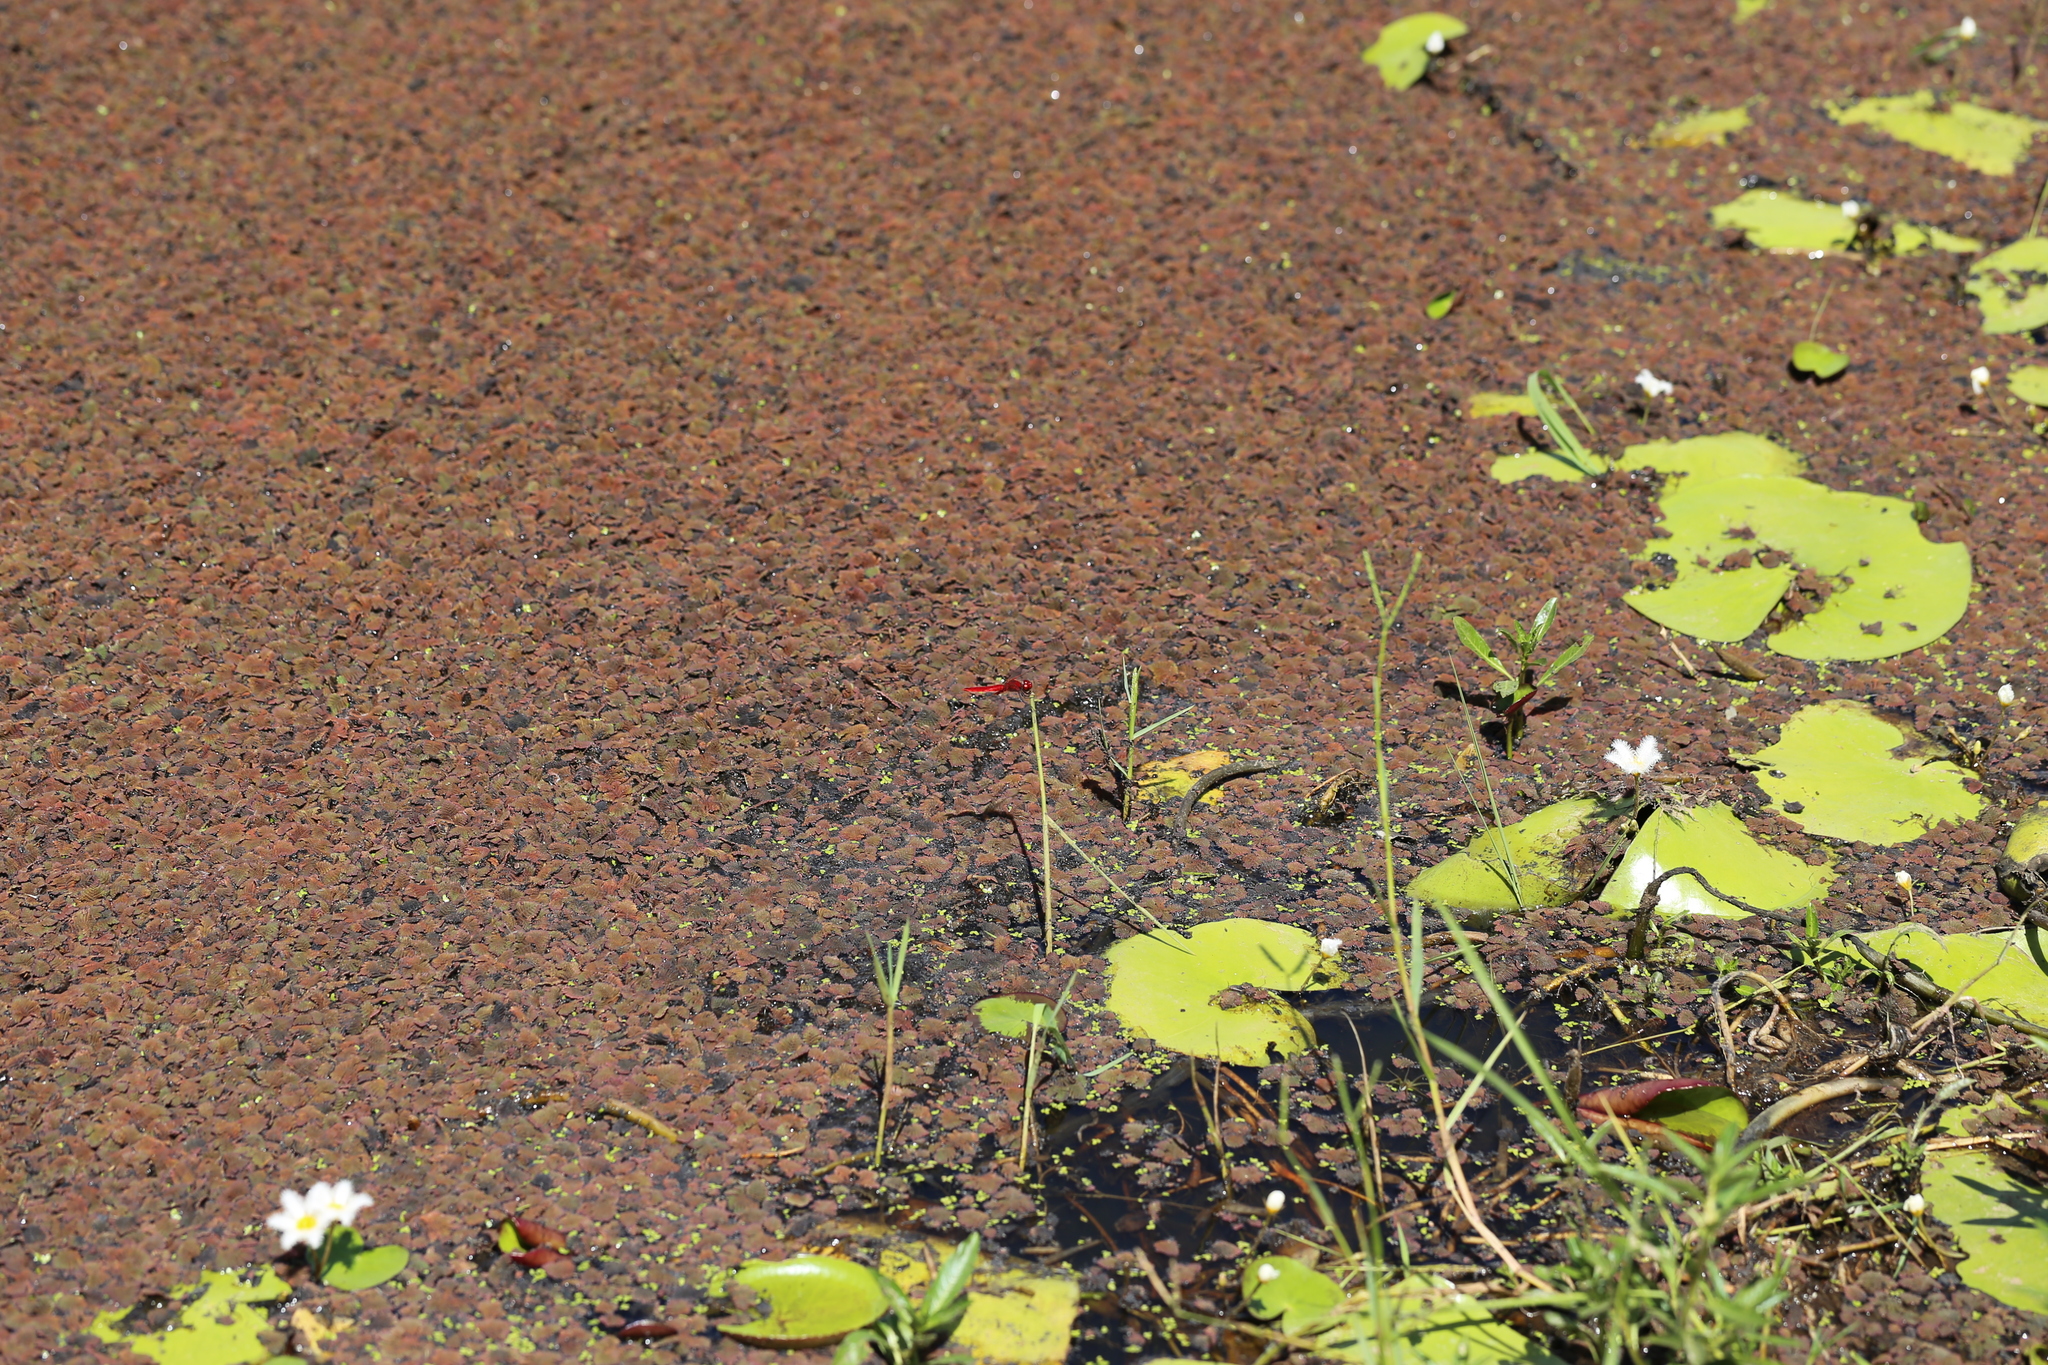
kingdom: Animalia
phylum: Arthropoda
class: Insecta
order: Odonata
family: Libellulidae
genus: Aethriamanta
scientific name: Aethriamanta circumsignata
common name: Square-spot basker
